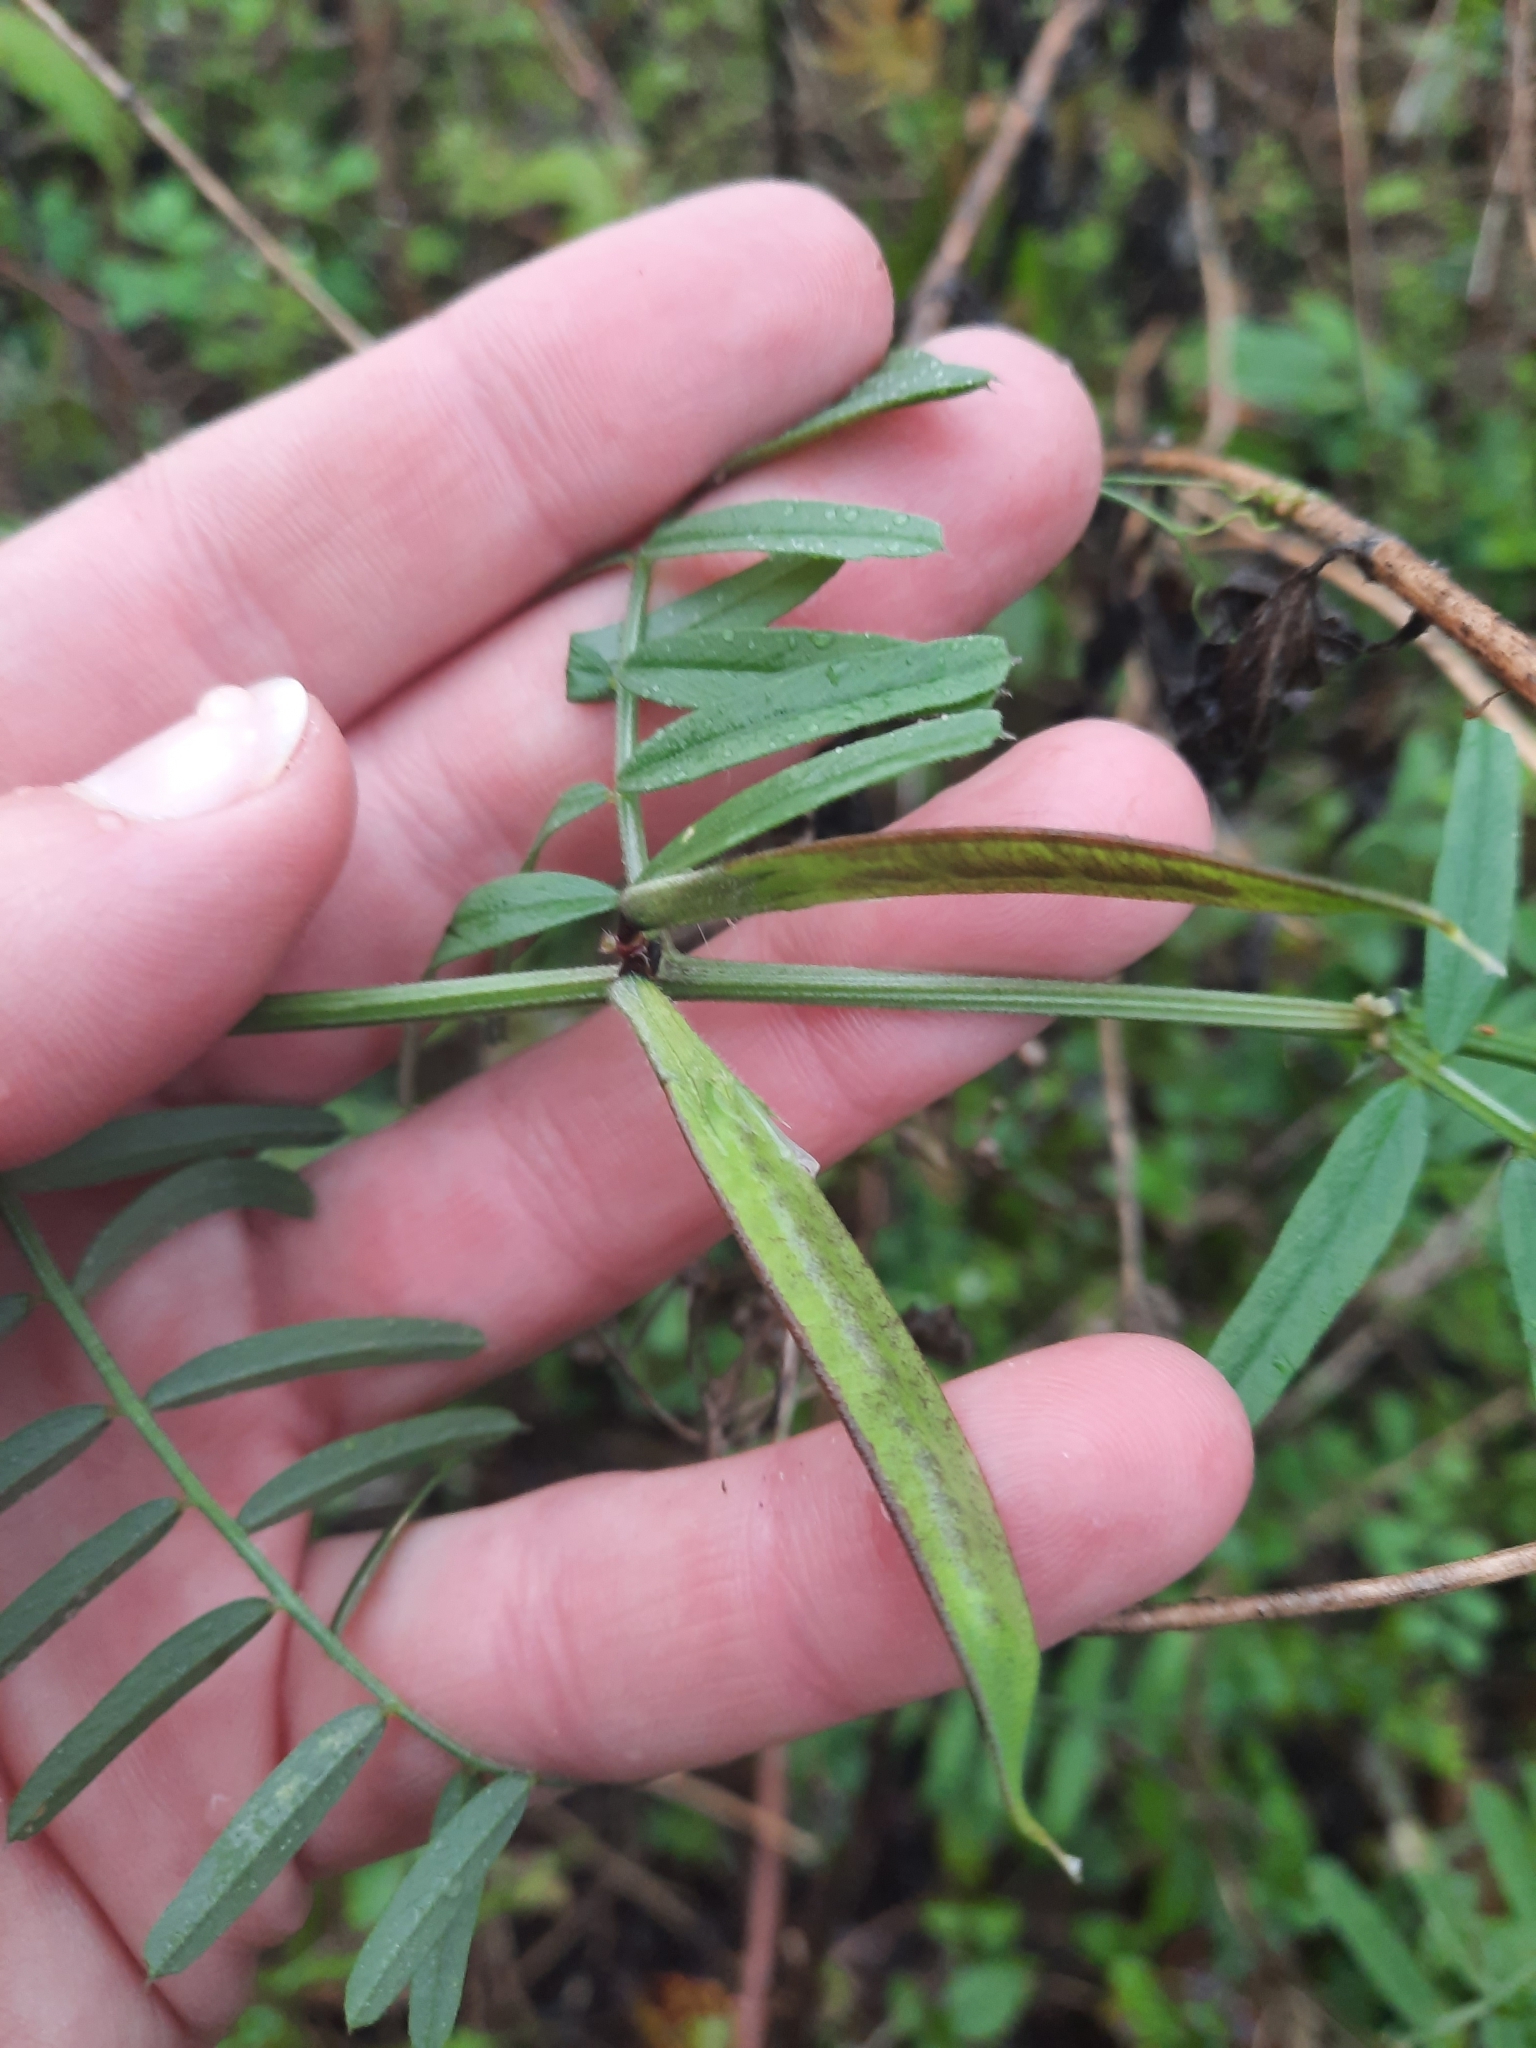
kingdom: Plantae
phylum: Tracheophyta
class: Magnoliopsida
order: Fabales
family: Fabaceae
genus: Vicia
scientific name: Vicia grandiflora
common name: Large yellow vetch
